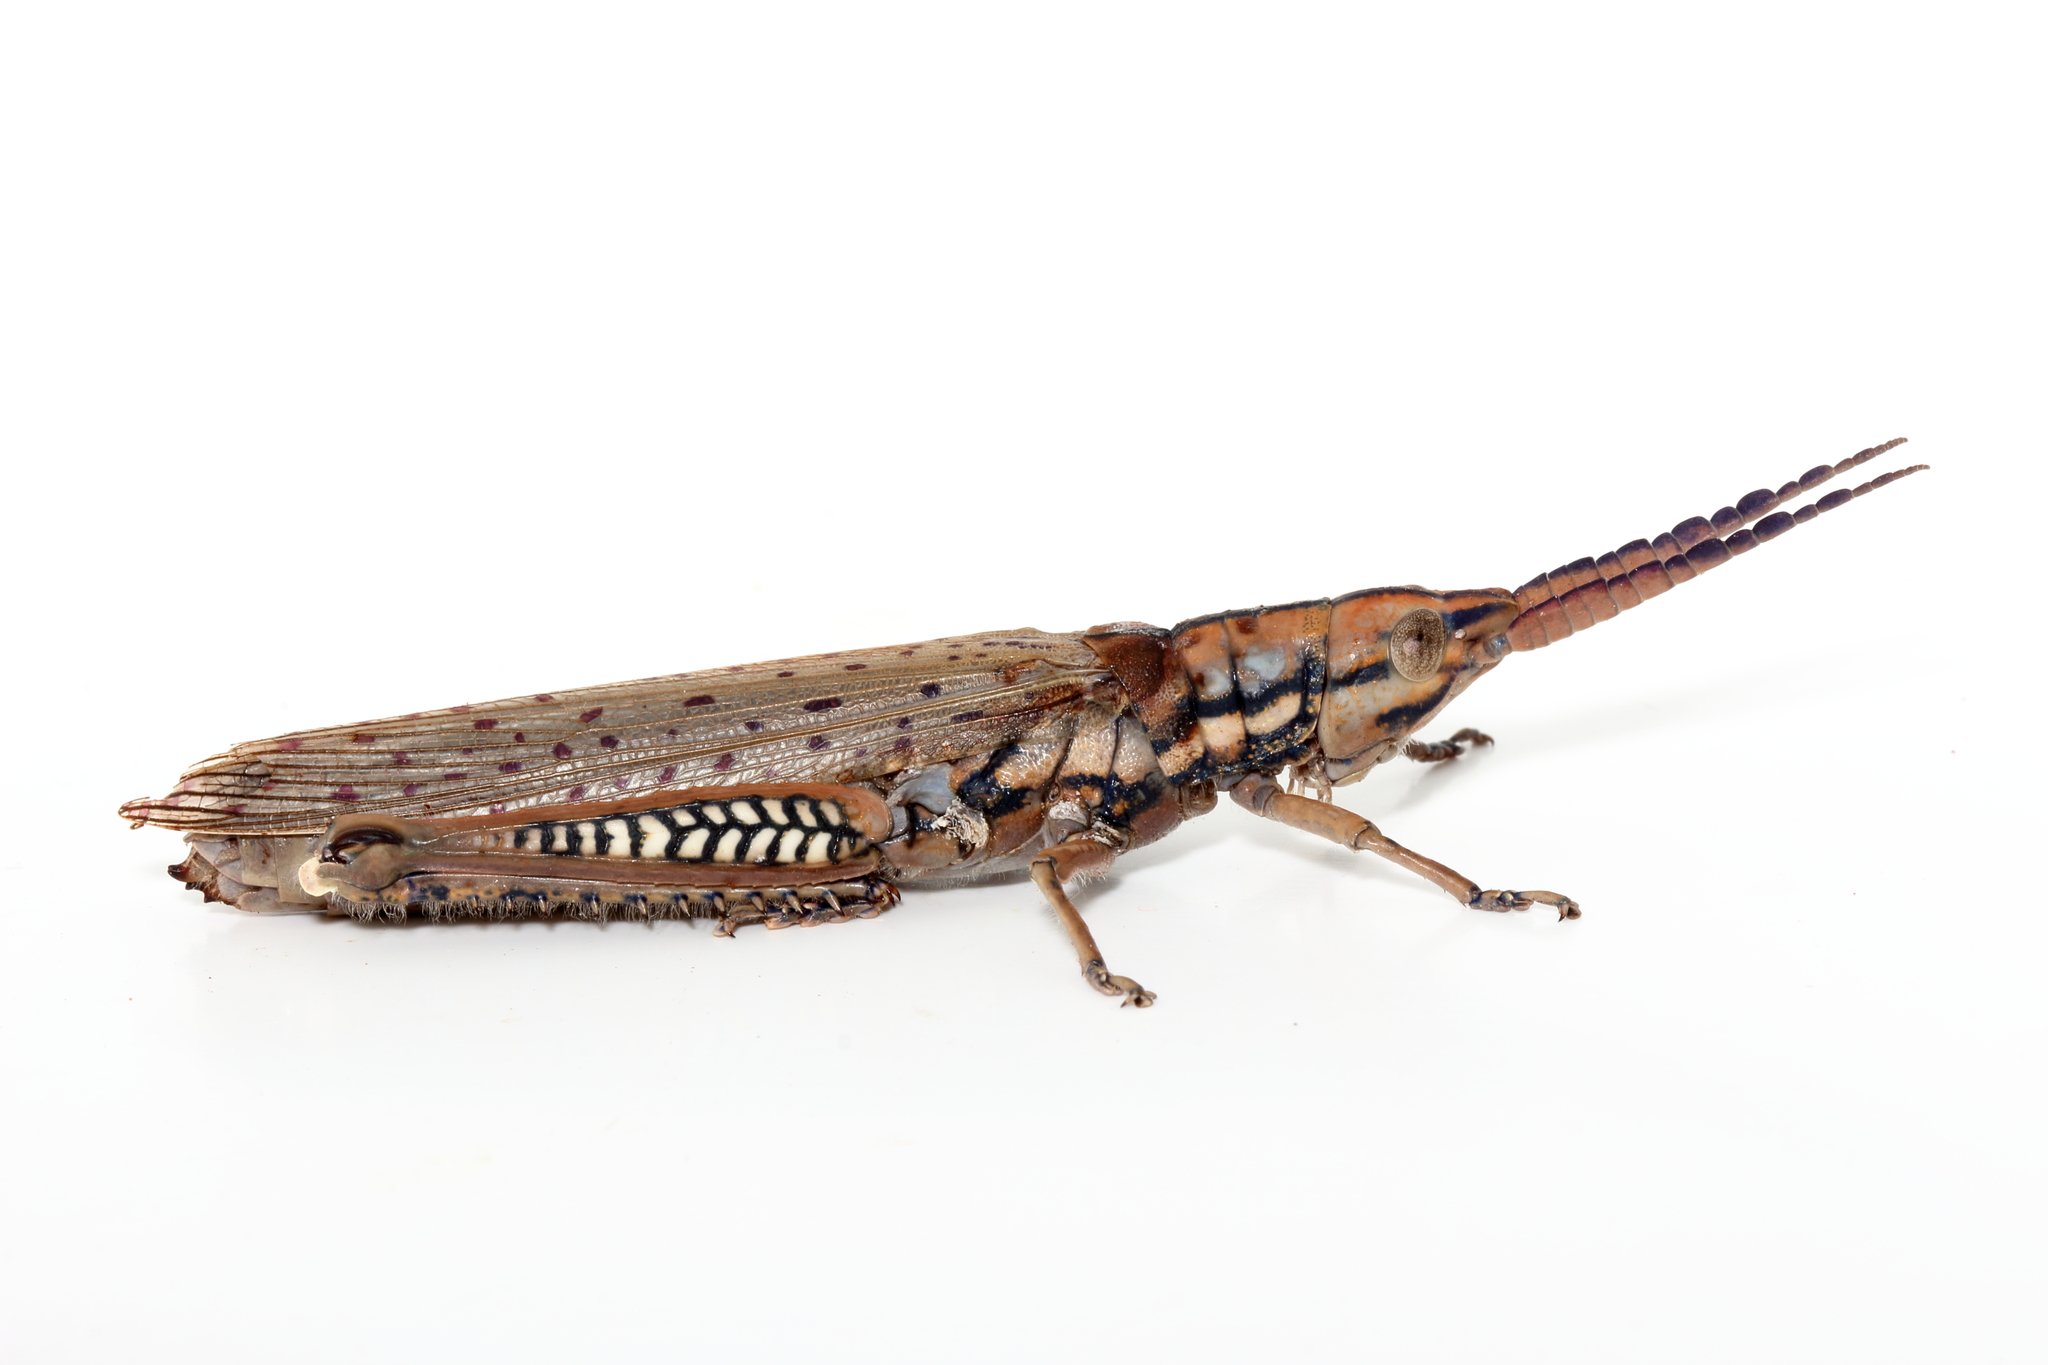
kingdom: Animalia
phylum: Arthropoda
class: Insecta
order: Orthoptera
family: Acrididae
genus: Macrolobalia
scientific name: Macrolobalia ocellata
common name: Gaudy acacia grasshopper
